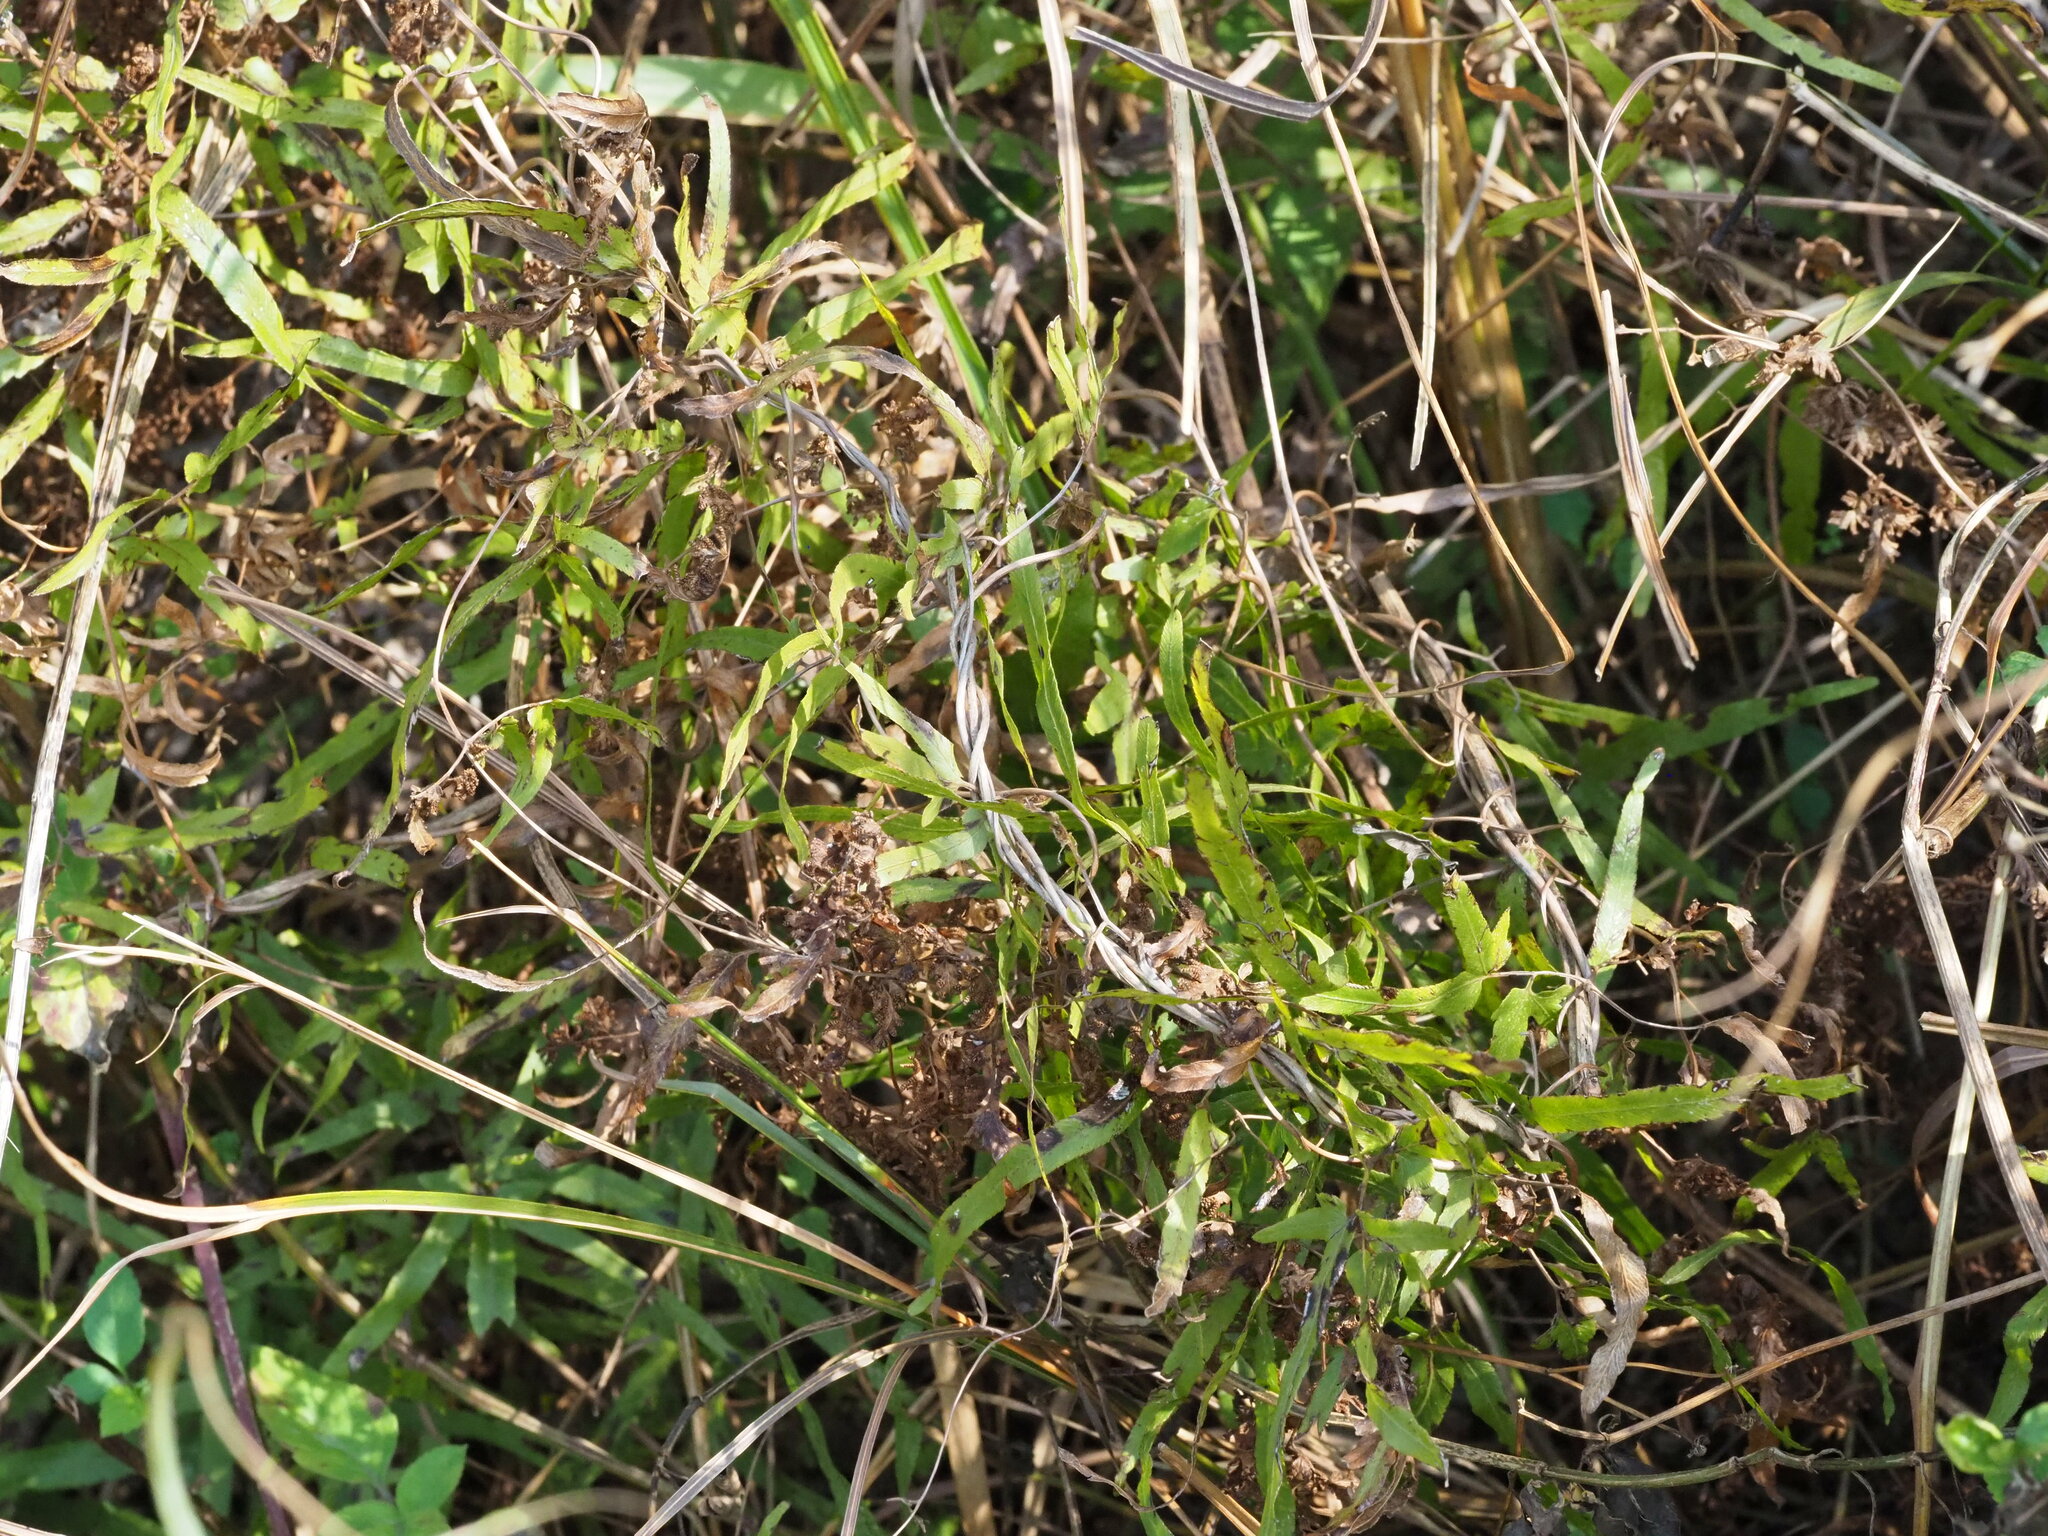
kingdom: Plantae
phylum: Tracheophyta
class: Polypodiopsida
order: Schizaeales
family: Lygodiaceae
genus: Lygodium
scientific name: Lygodium japonicum
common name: Japanese climbing fern
